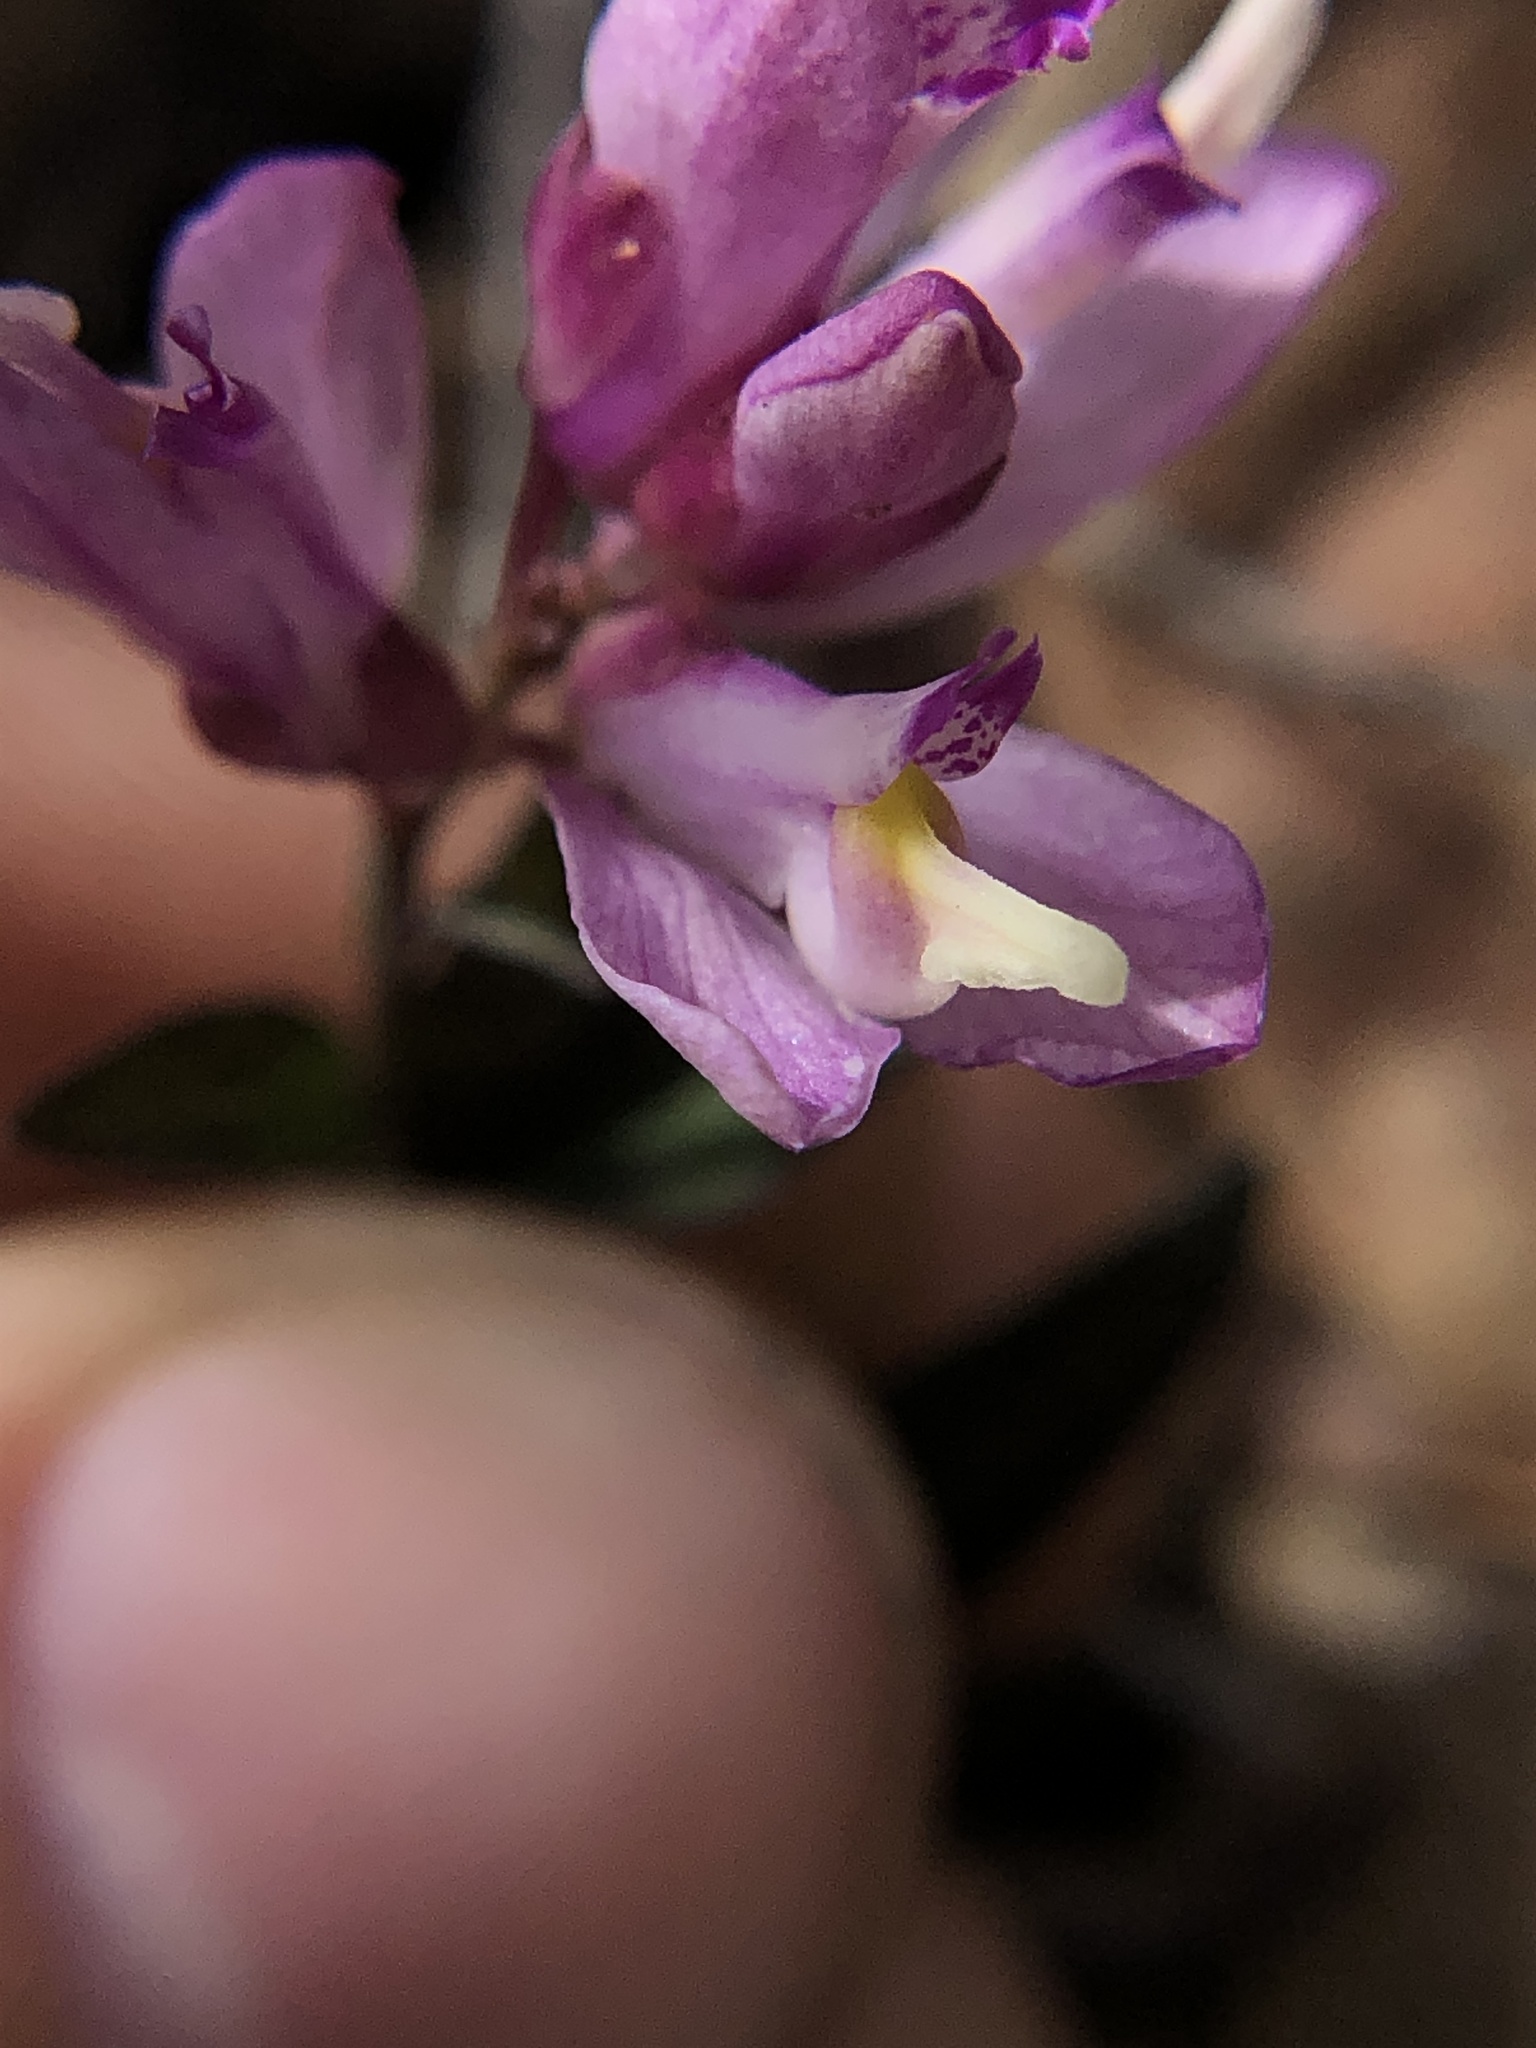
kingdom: Plantae
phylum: Tracheophyta
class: Magnoliopsida
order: Fabales
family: Polygalaceae
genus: Rhinotropis
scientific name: Rhinotropis californica
